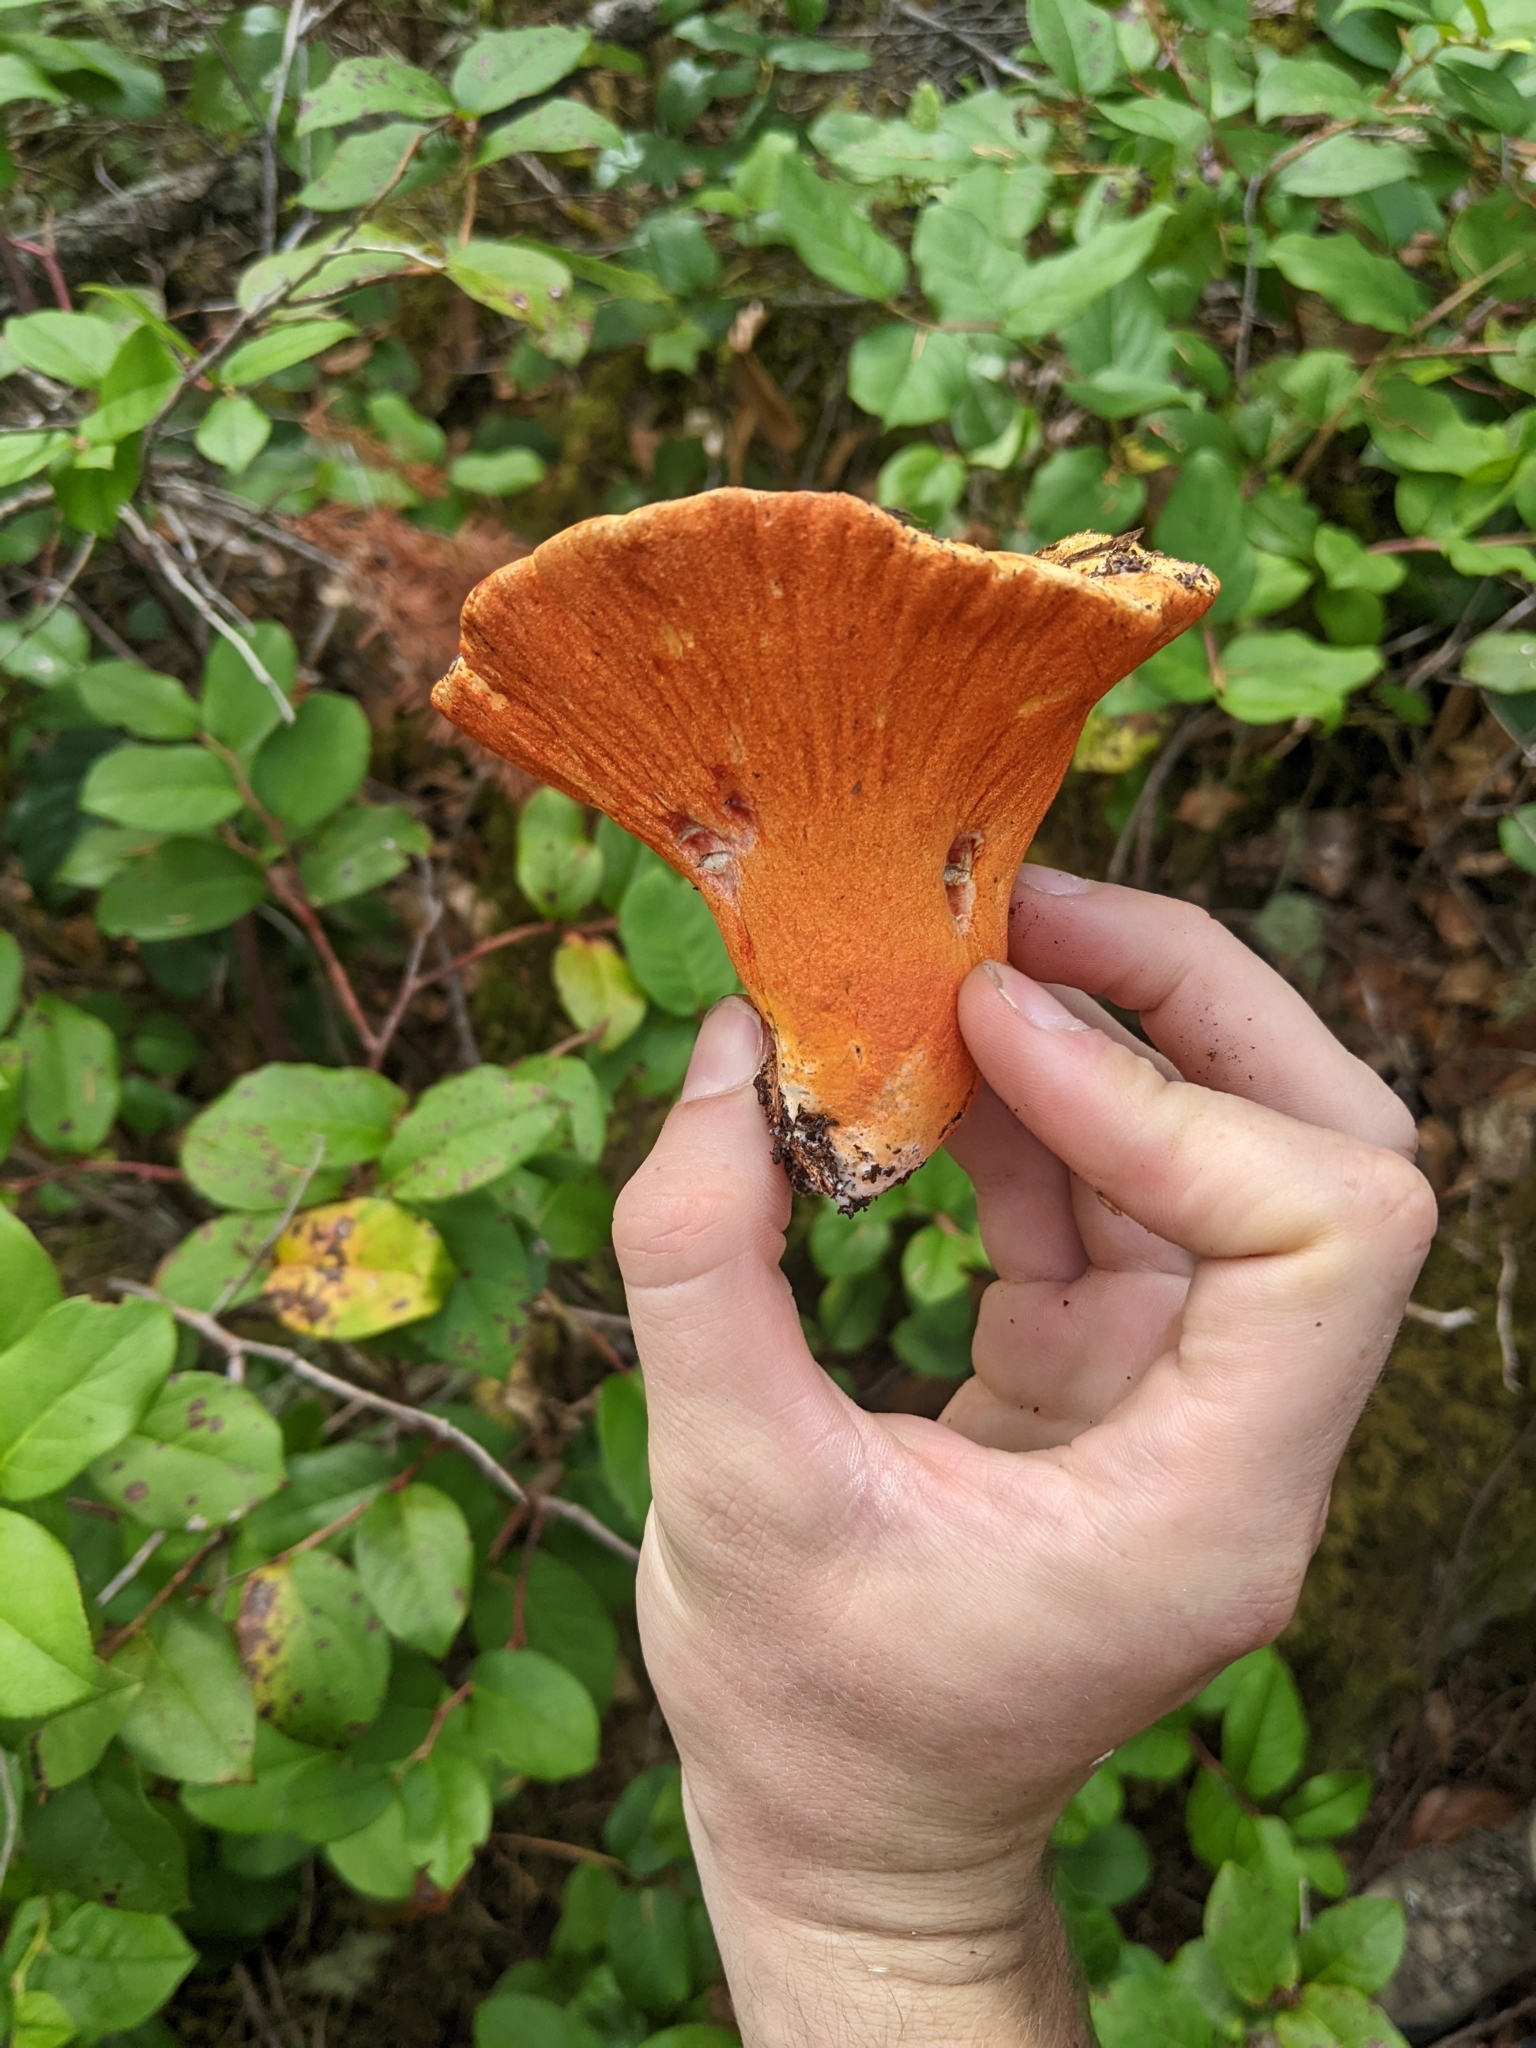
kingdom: Fungi
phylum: Ascomycota
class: Sordariomycetes
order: Hypocreales
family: Hypocreaceae
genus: Hypomyces
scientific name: Hypomyces lactifluorum
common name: Lobster mushroom
